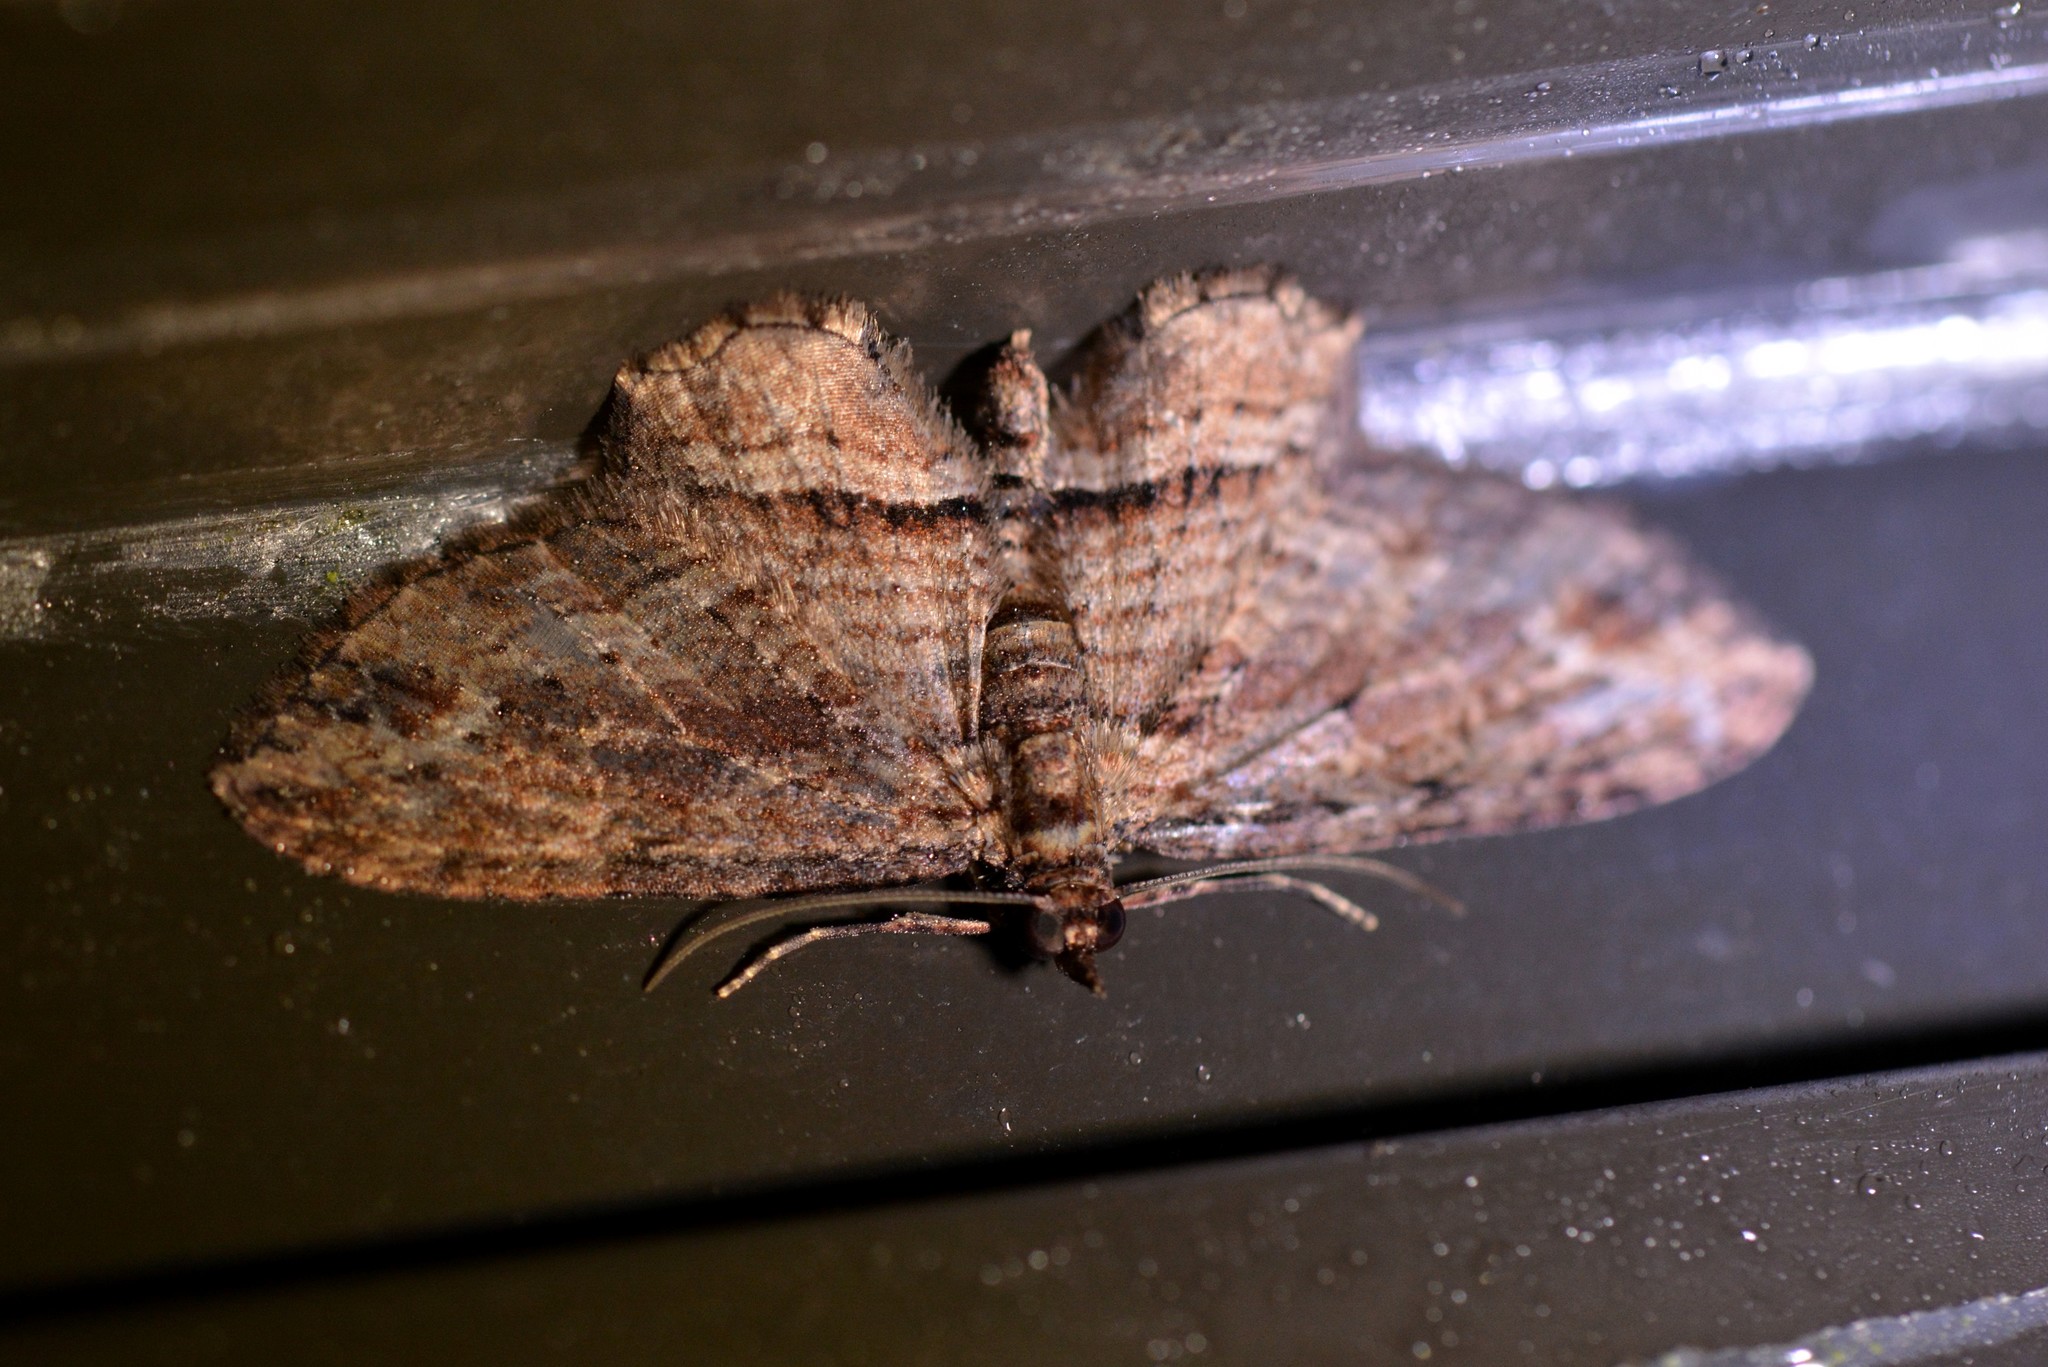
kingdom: Animalia
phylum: Arthropoda
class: Insecta
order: Lepidoptera
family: Geometridae
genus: Chloroclystis
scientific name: Chloroclystis filata
